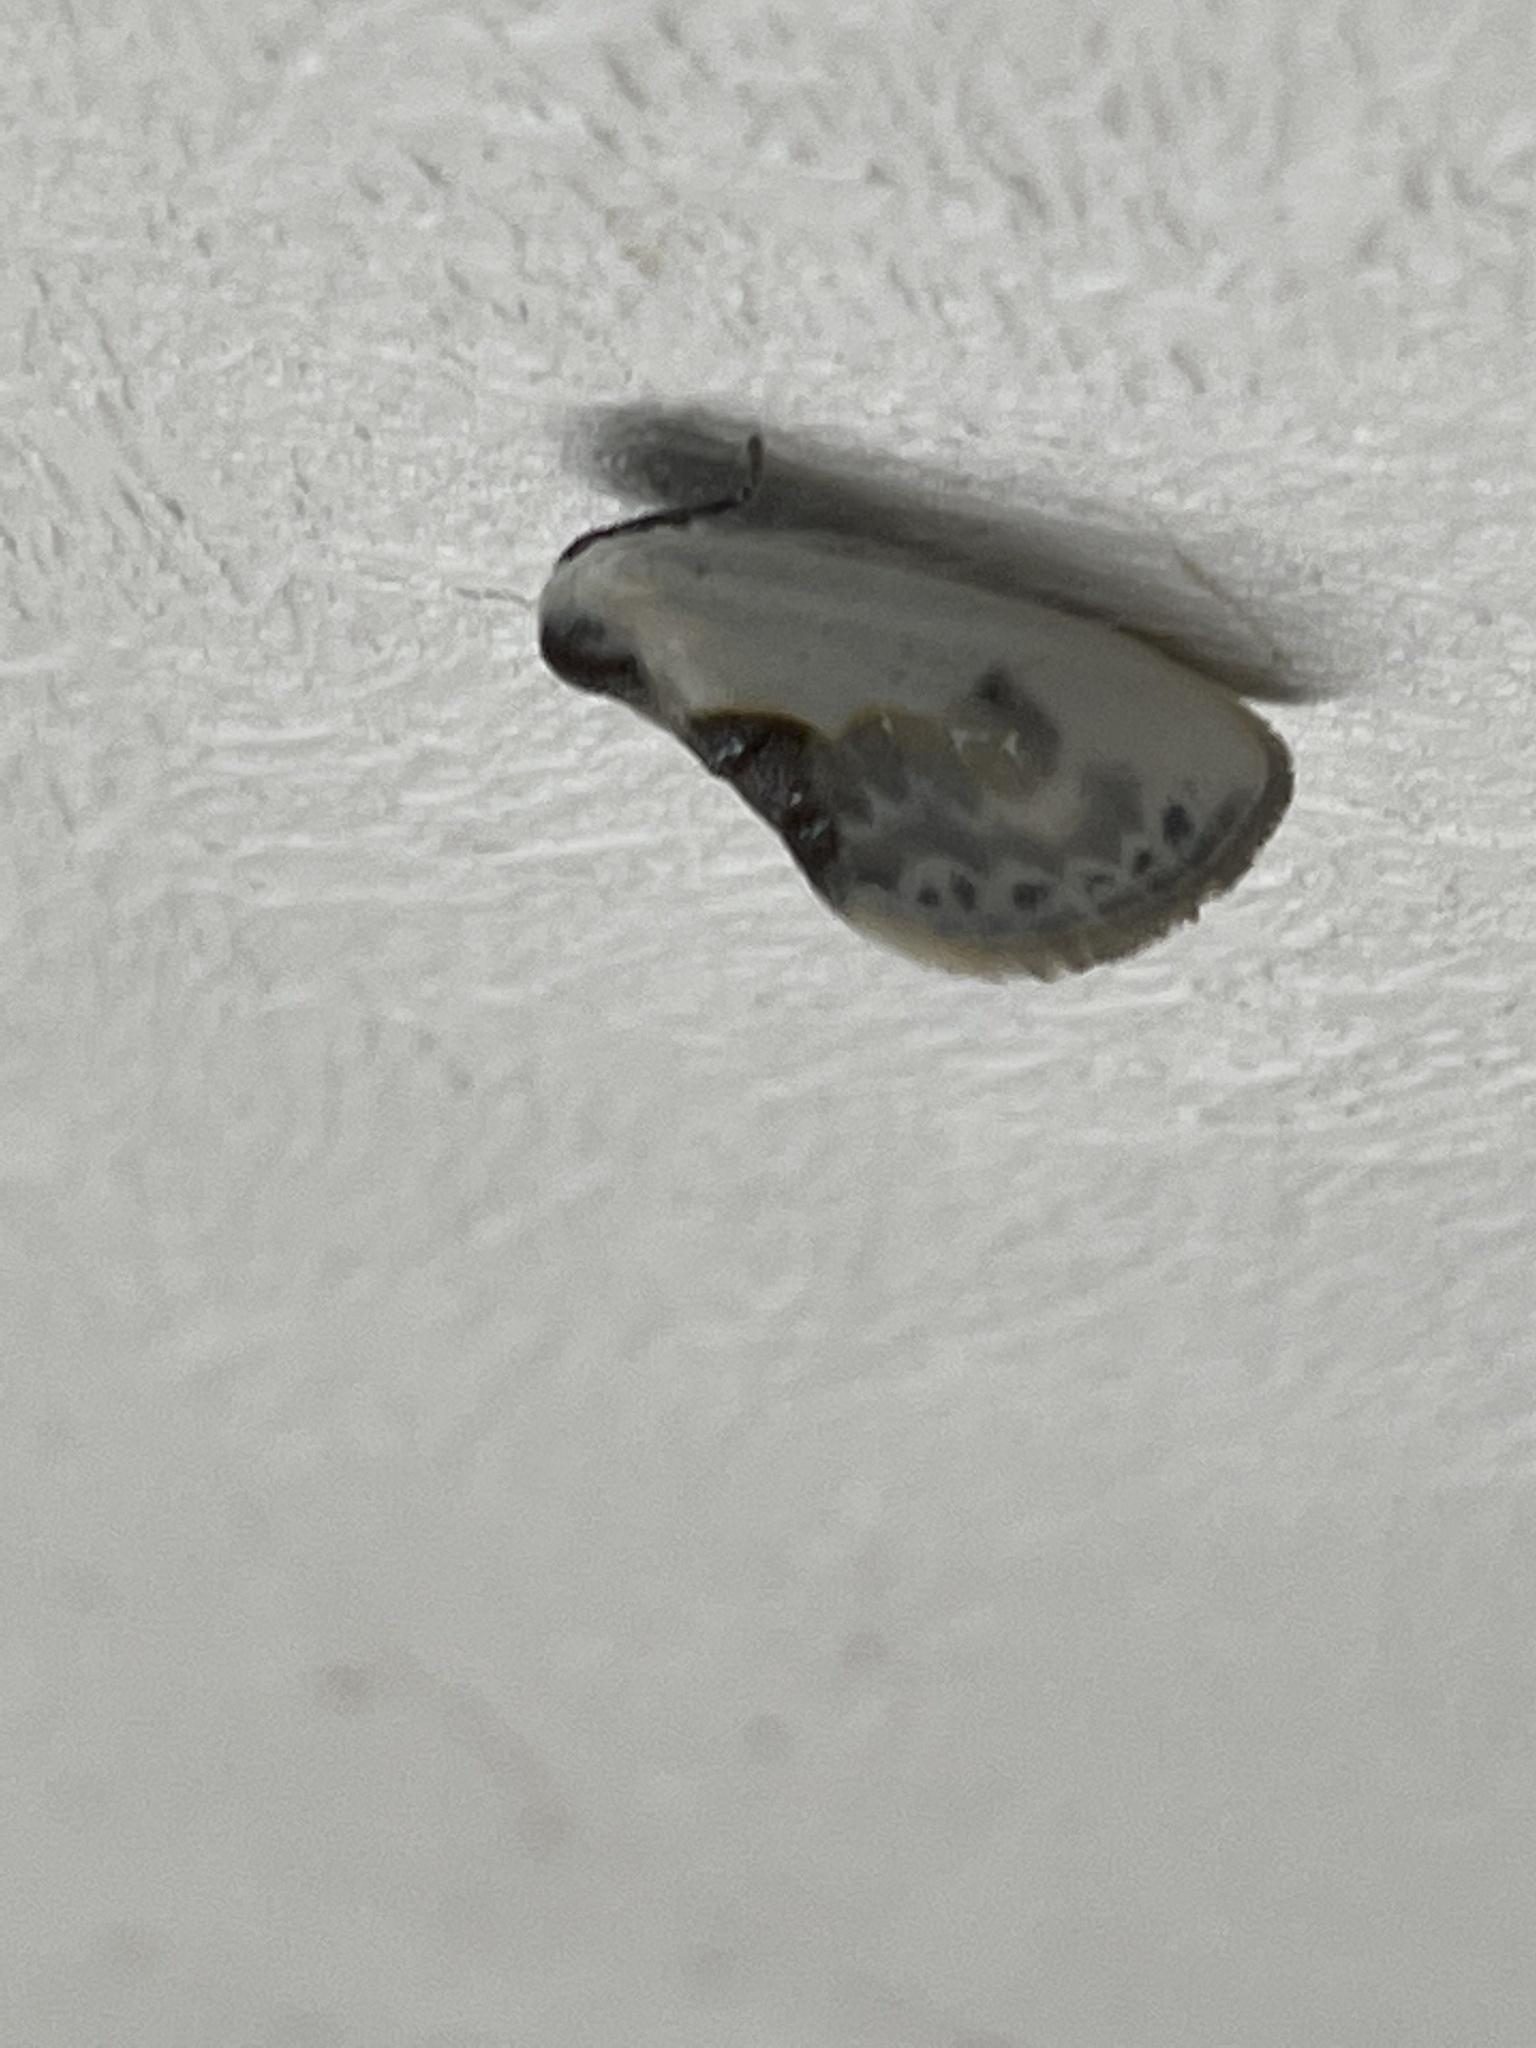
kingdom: Animalia
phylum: Arthropoda
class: Insecta
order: Lepidoptera
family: Drepanidae
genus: Cilix
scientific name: Cilix glaucata
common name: Chinese character
